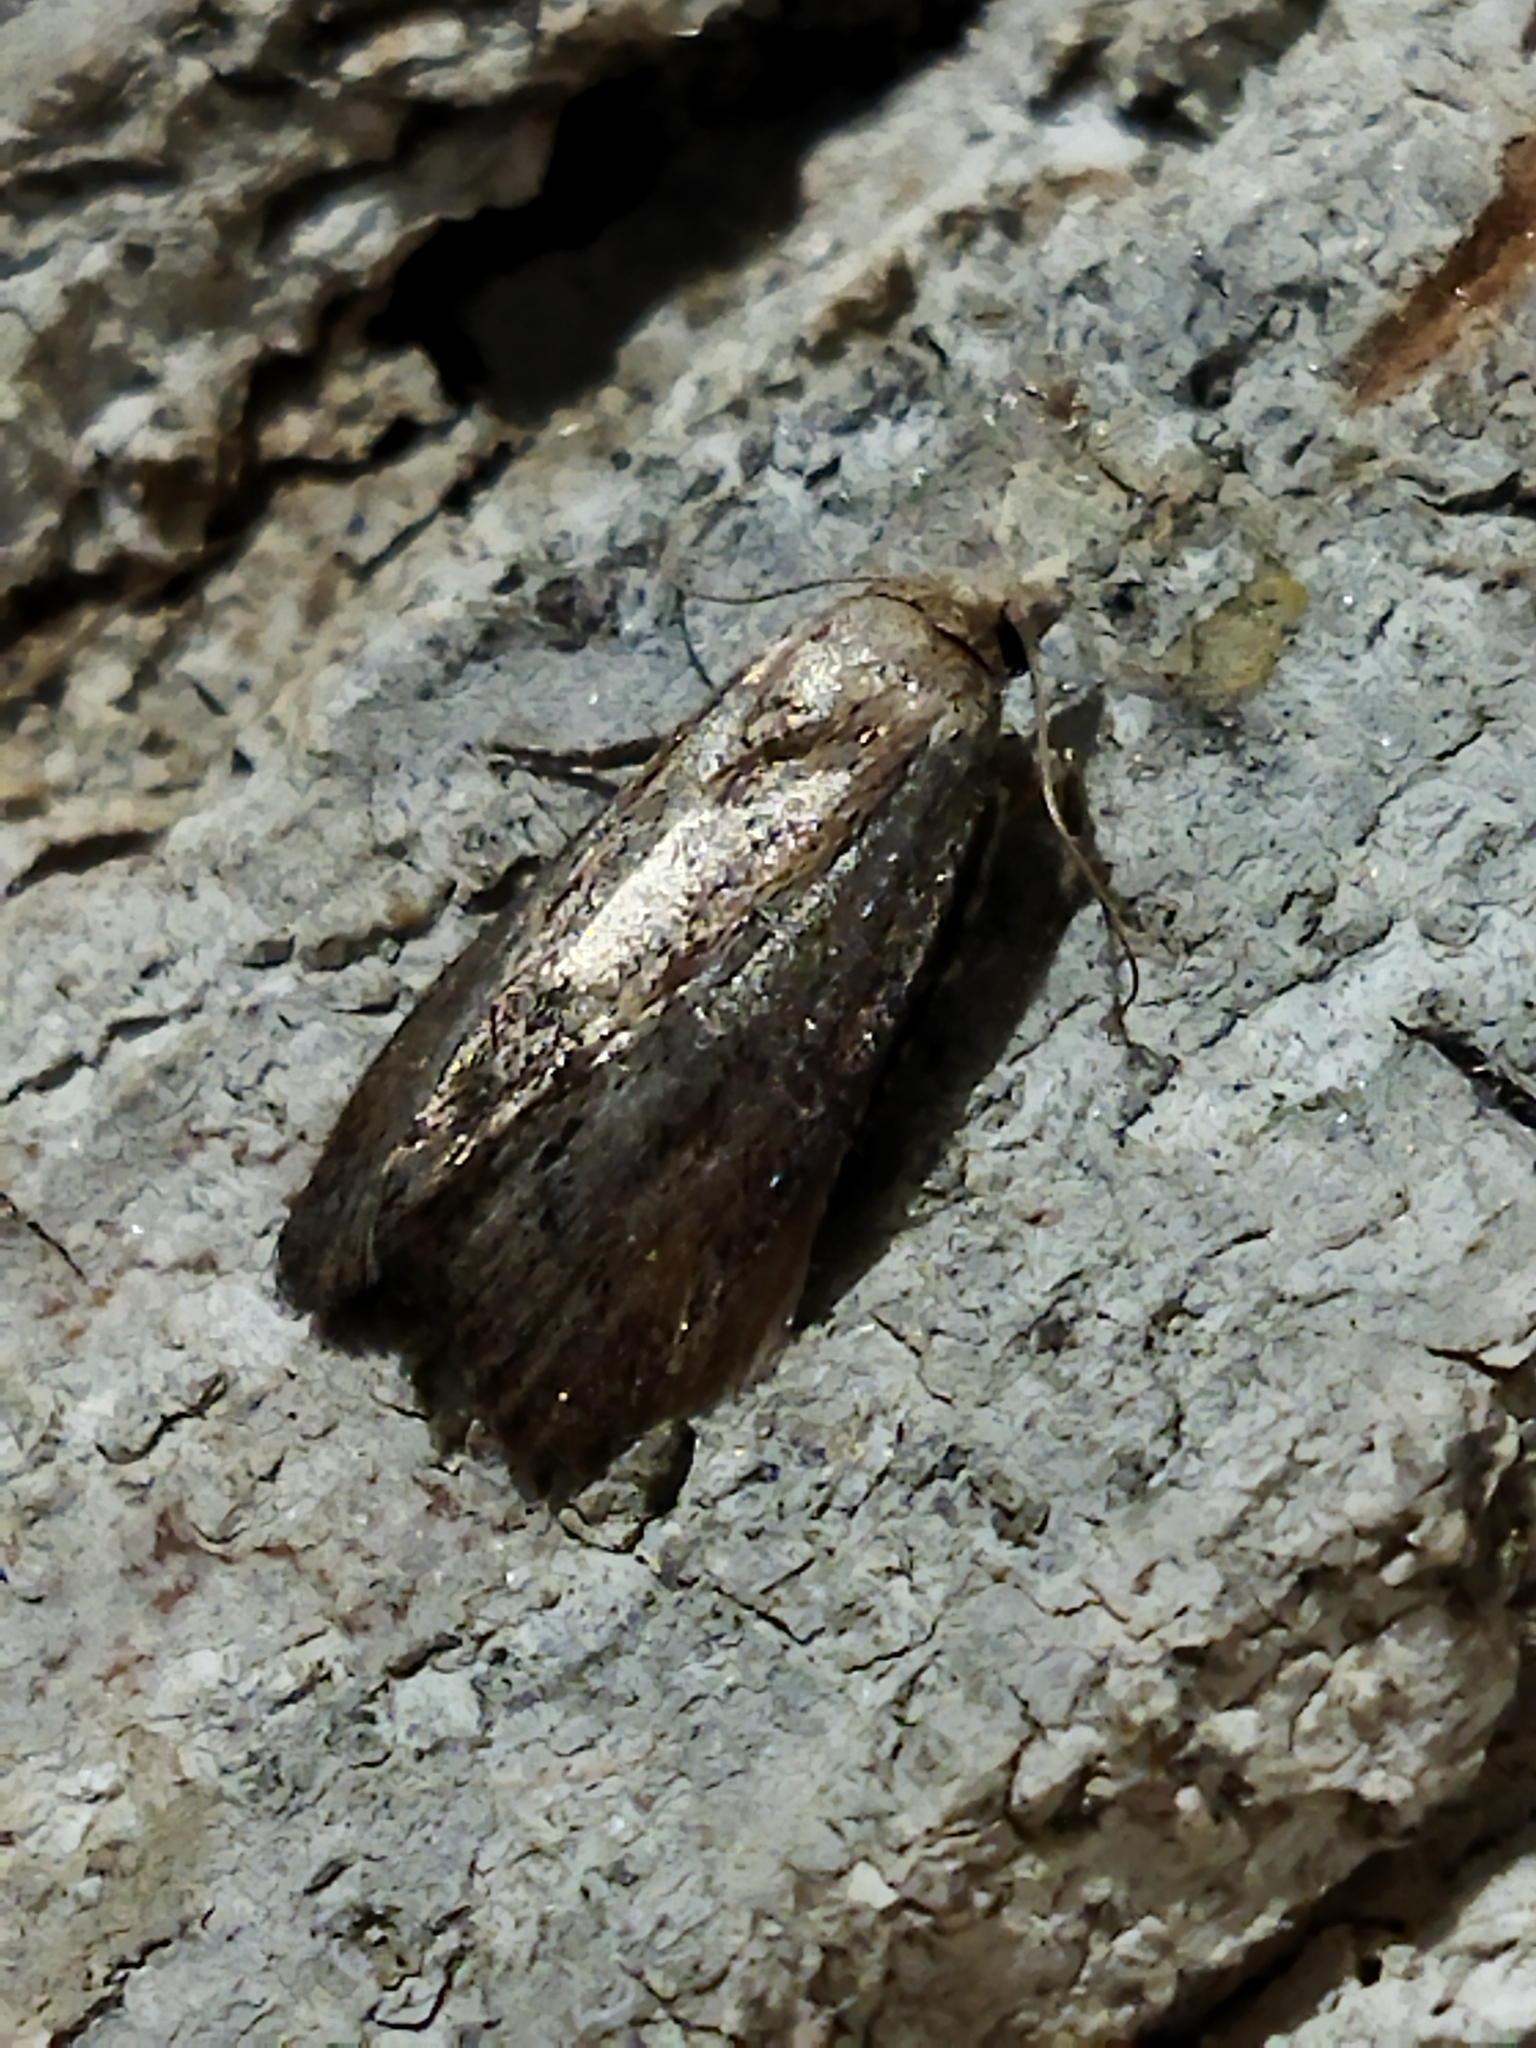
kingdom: Animalia
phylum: Arthropoda
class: Insecta
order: Lepidoptera
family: Pyralidae
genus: Galleria
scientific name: Galleria mellonella
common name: Greater wax moth
